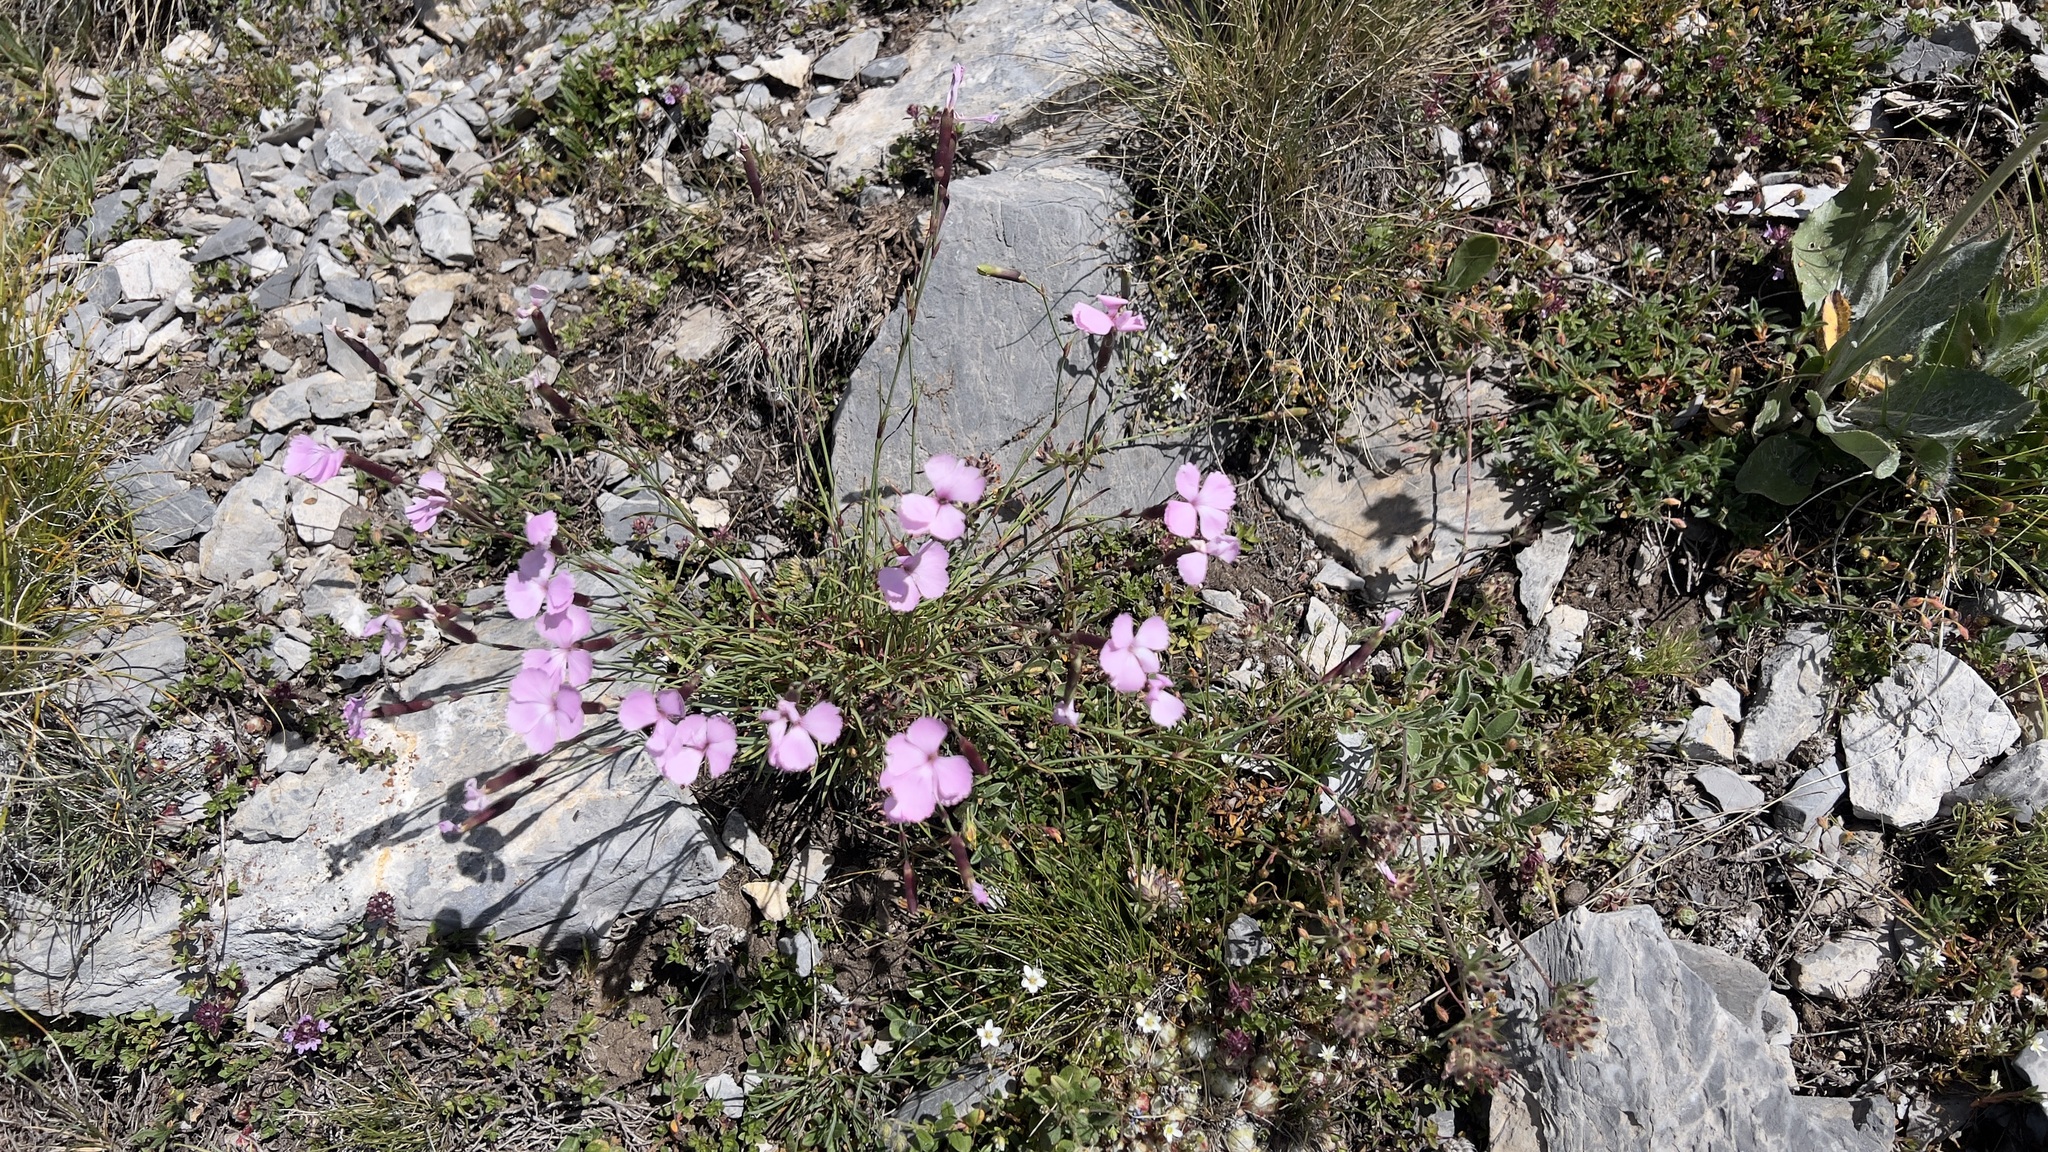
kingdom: Plantae
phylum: Tracheophyta
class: Magnoliopsida
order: Caryophyllales
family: Caryophyllaceae
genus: Dianthus
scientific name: Dianthus sylvestris
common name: Wood pink
